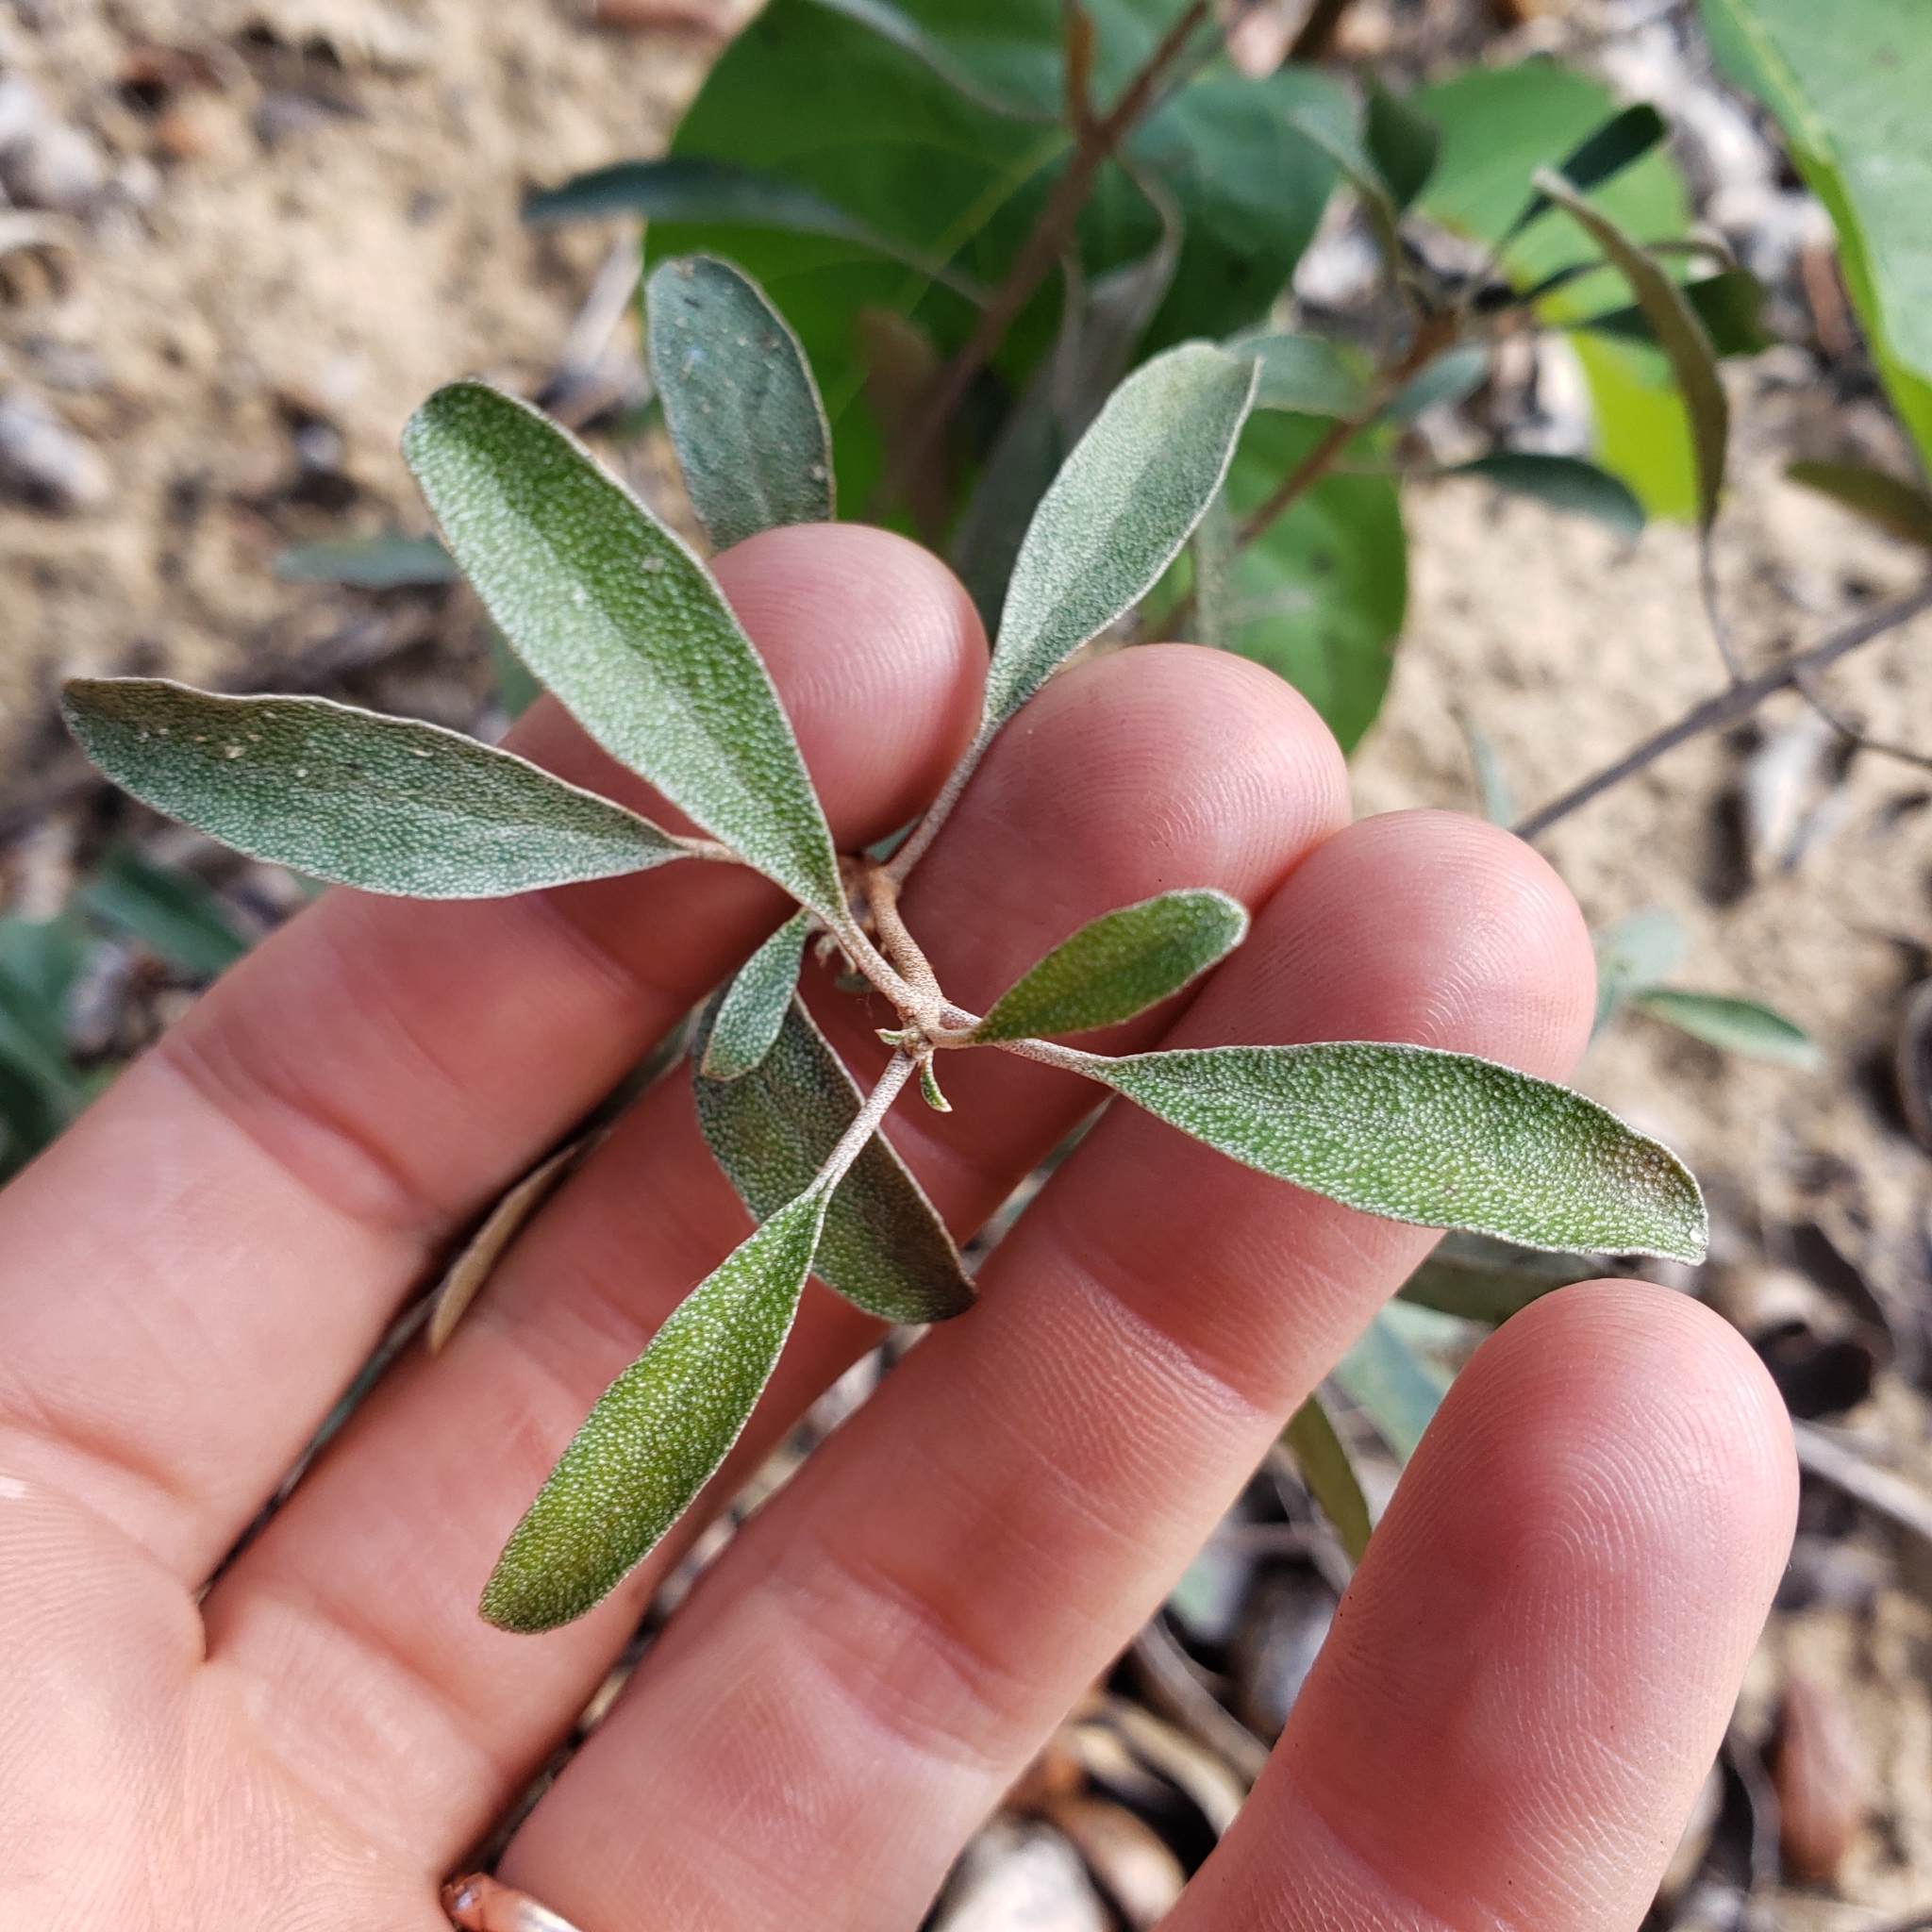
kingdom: Plantae
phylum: Tracheophyta
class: Magnoliopsida
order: Malpighiales
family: Euphorbiaceae
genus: Croton
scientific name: Croton argyranthemus
